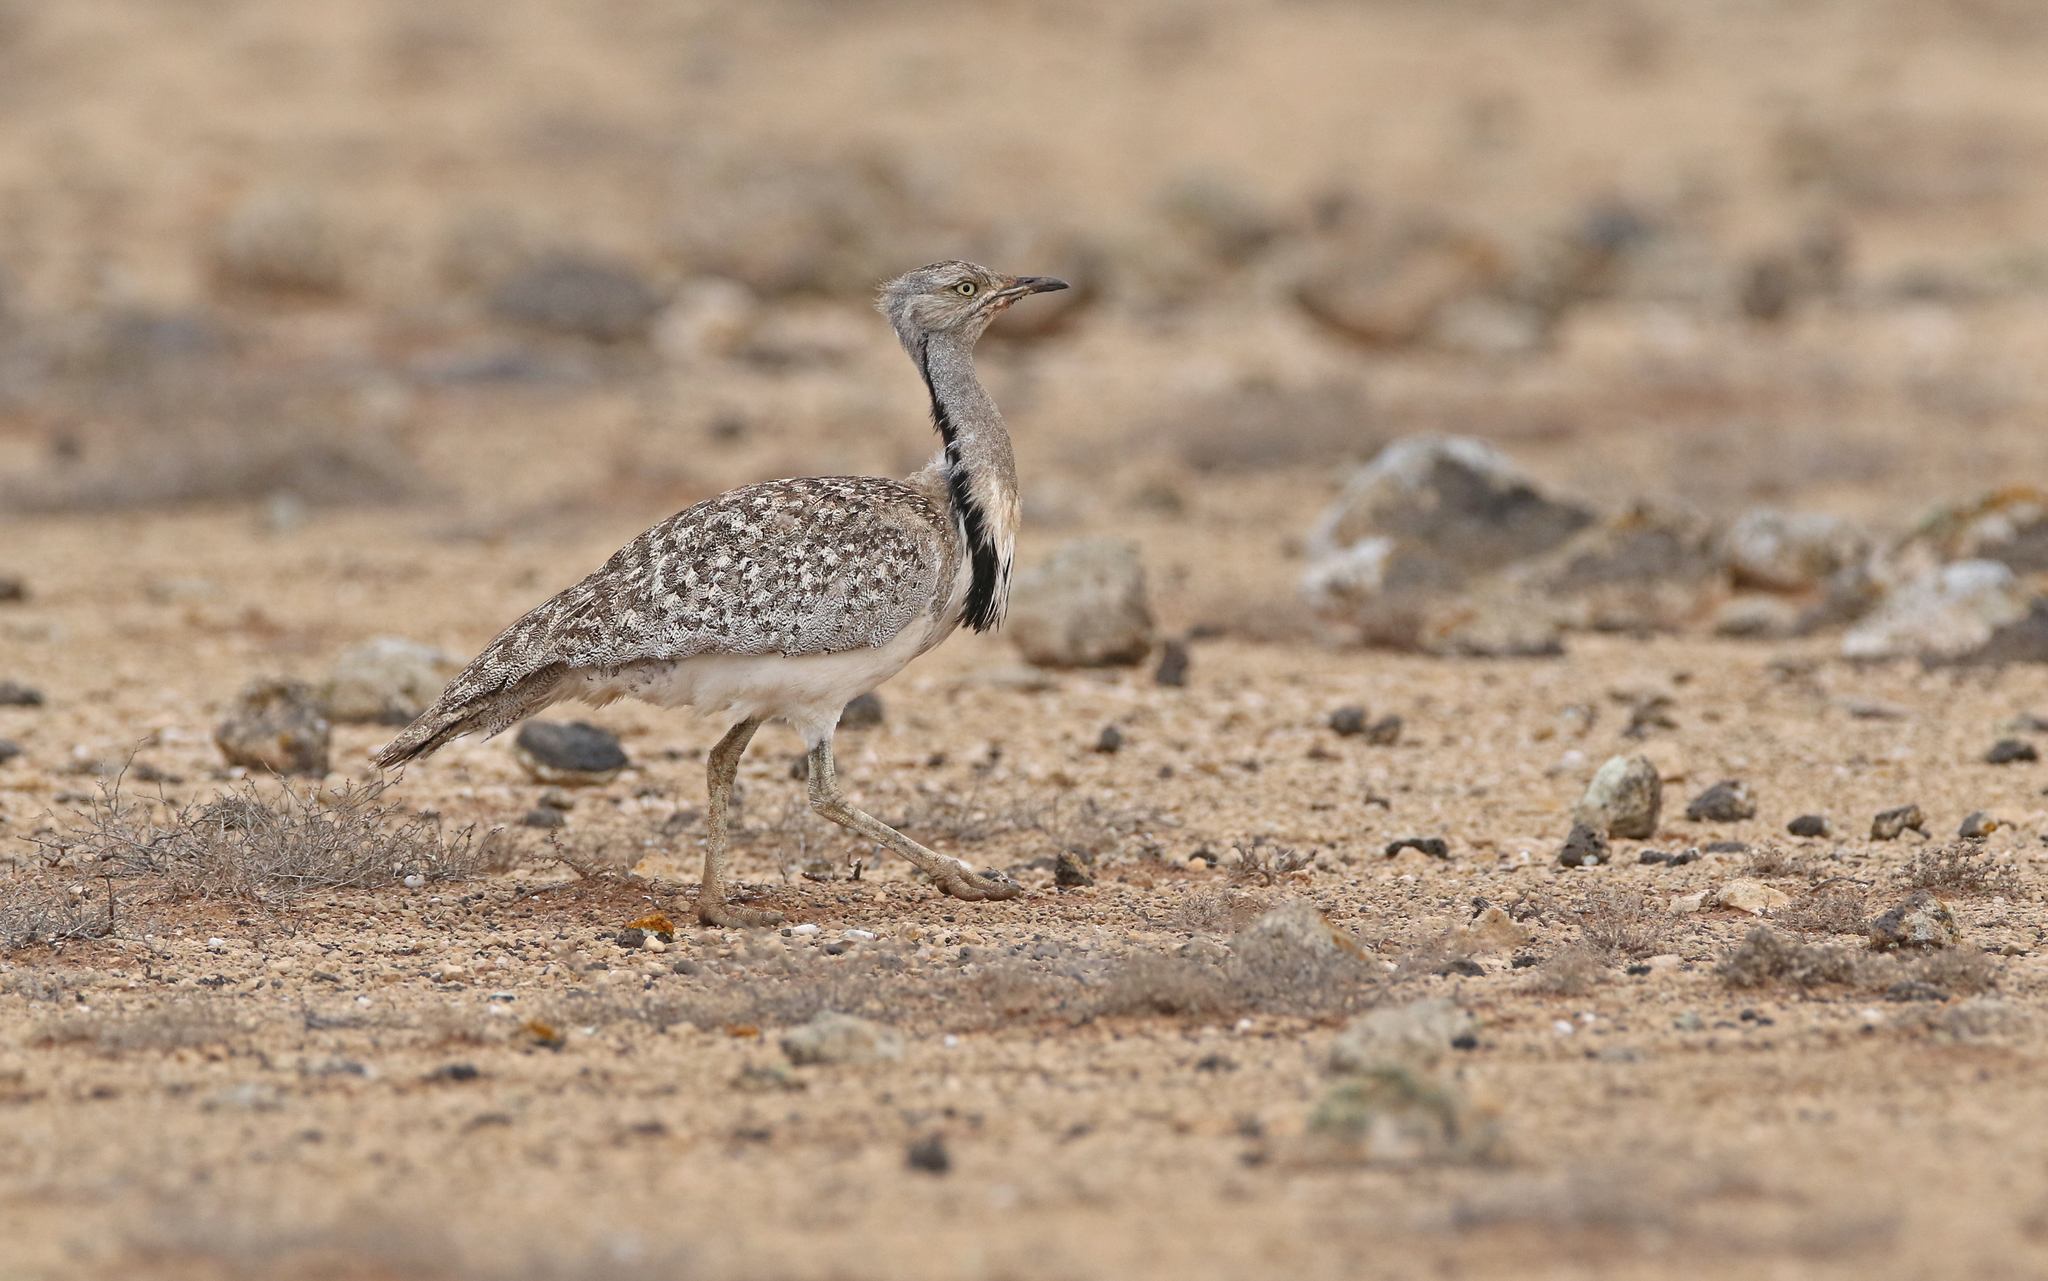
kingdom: Animalia
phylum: Chordata
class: Aves
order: Otidiformes
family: Otididae
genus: Chlamydotis
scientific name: Chlamydotis undulata
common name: Houbara bustard
